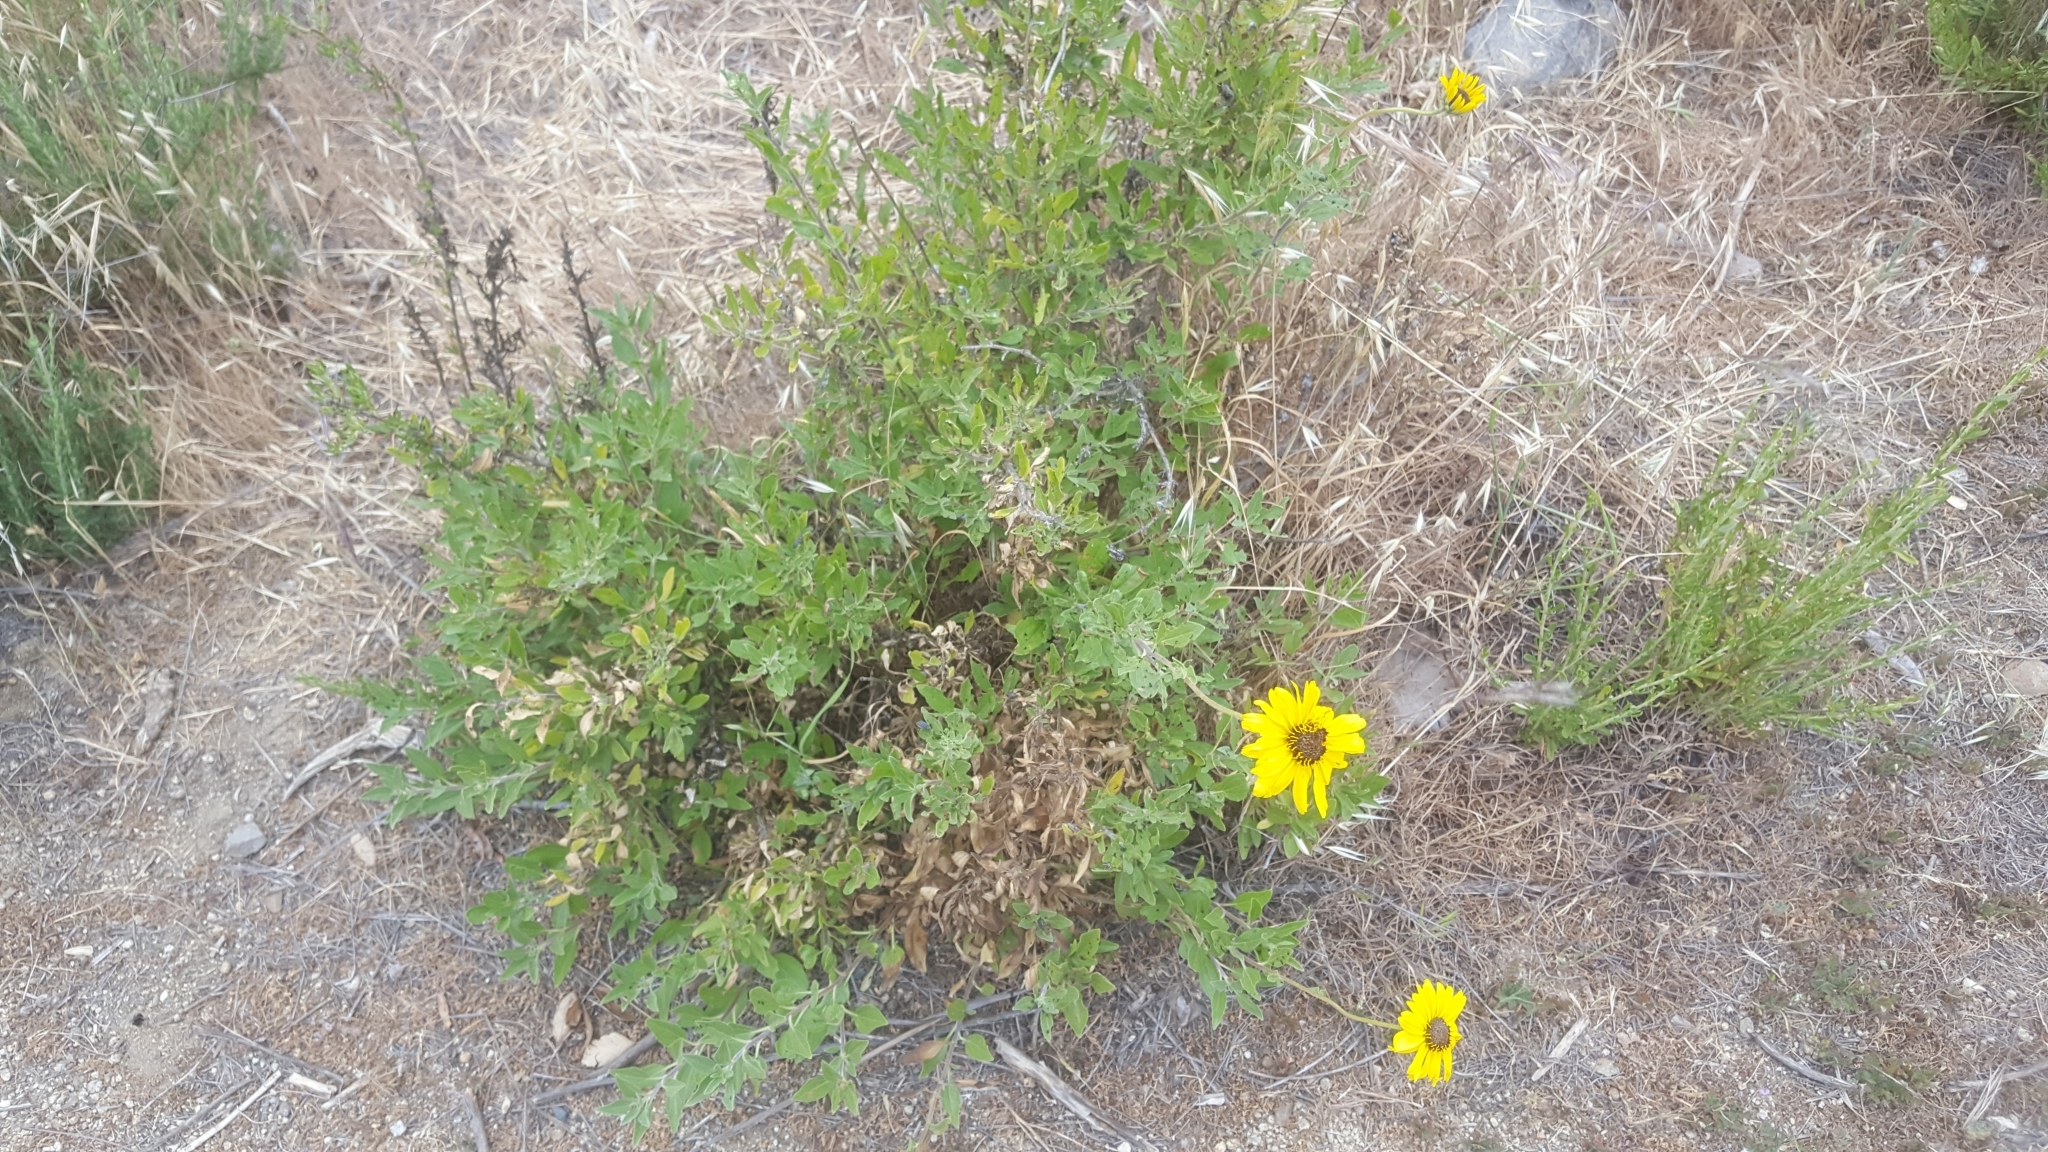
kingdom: Plantae
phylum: Tracheophyta
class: Magnoliopsida
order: Asterales
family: Asteraceae
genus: Encelia
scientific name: Encelia californica
